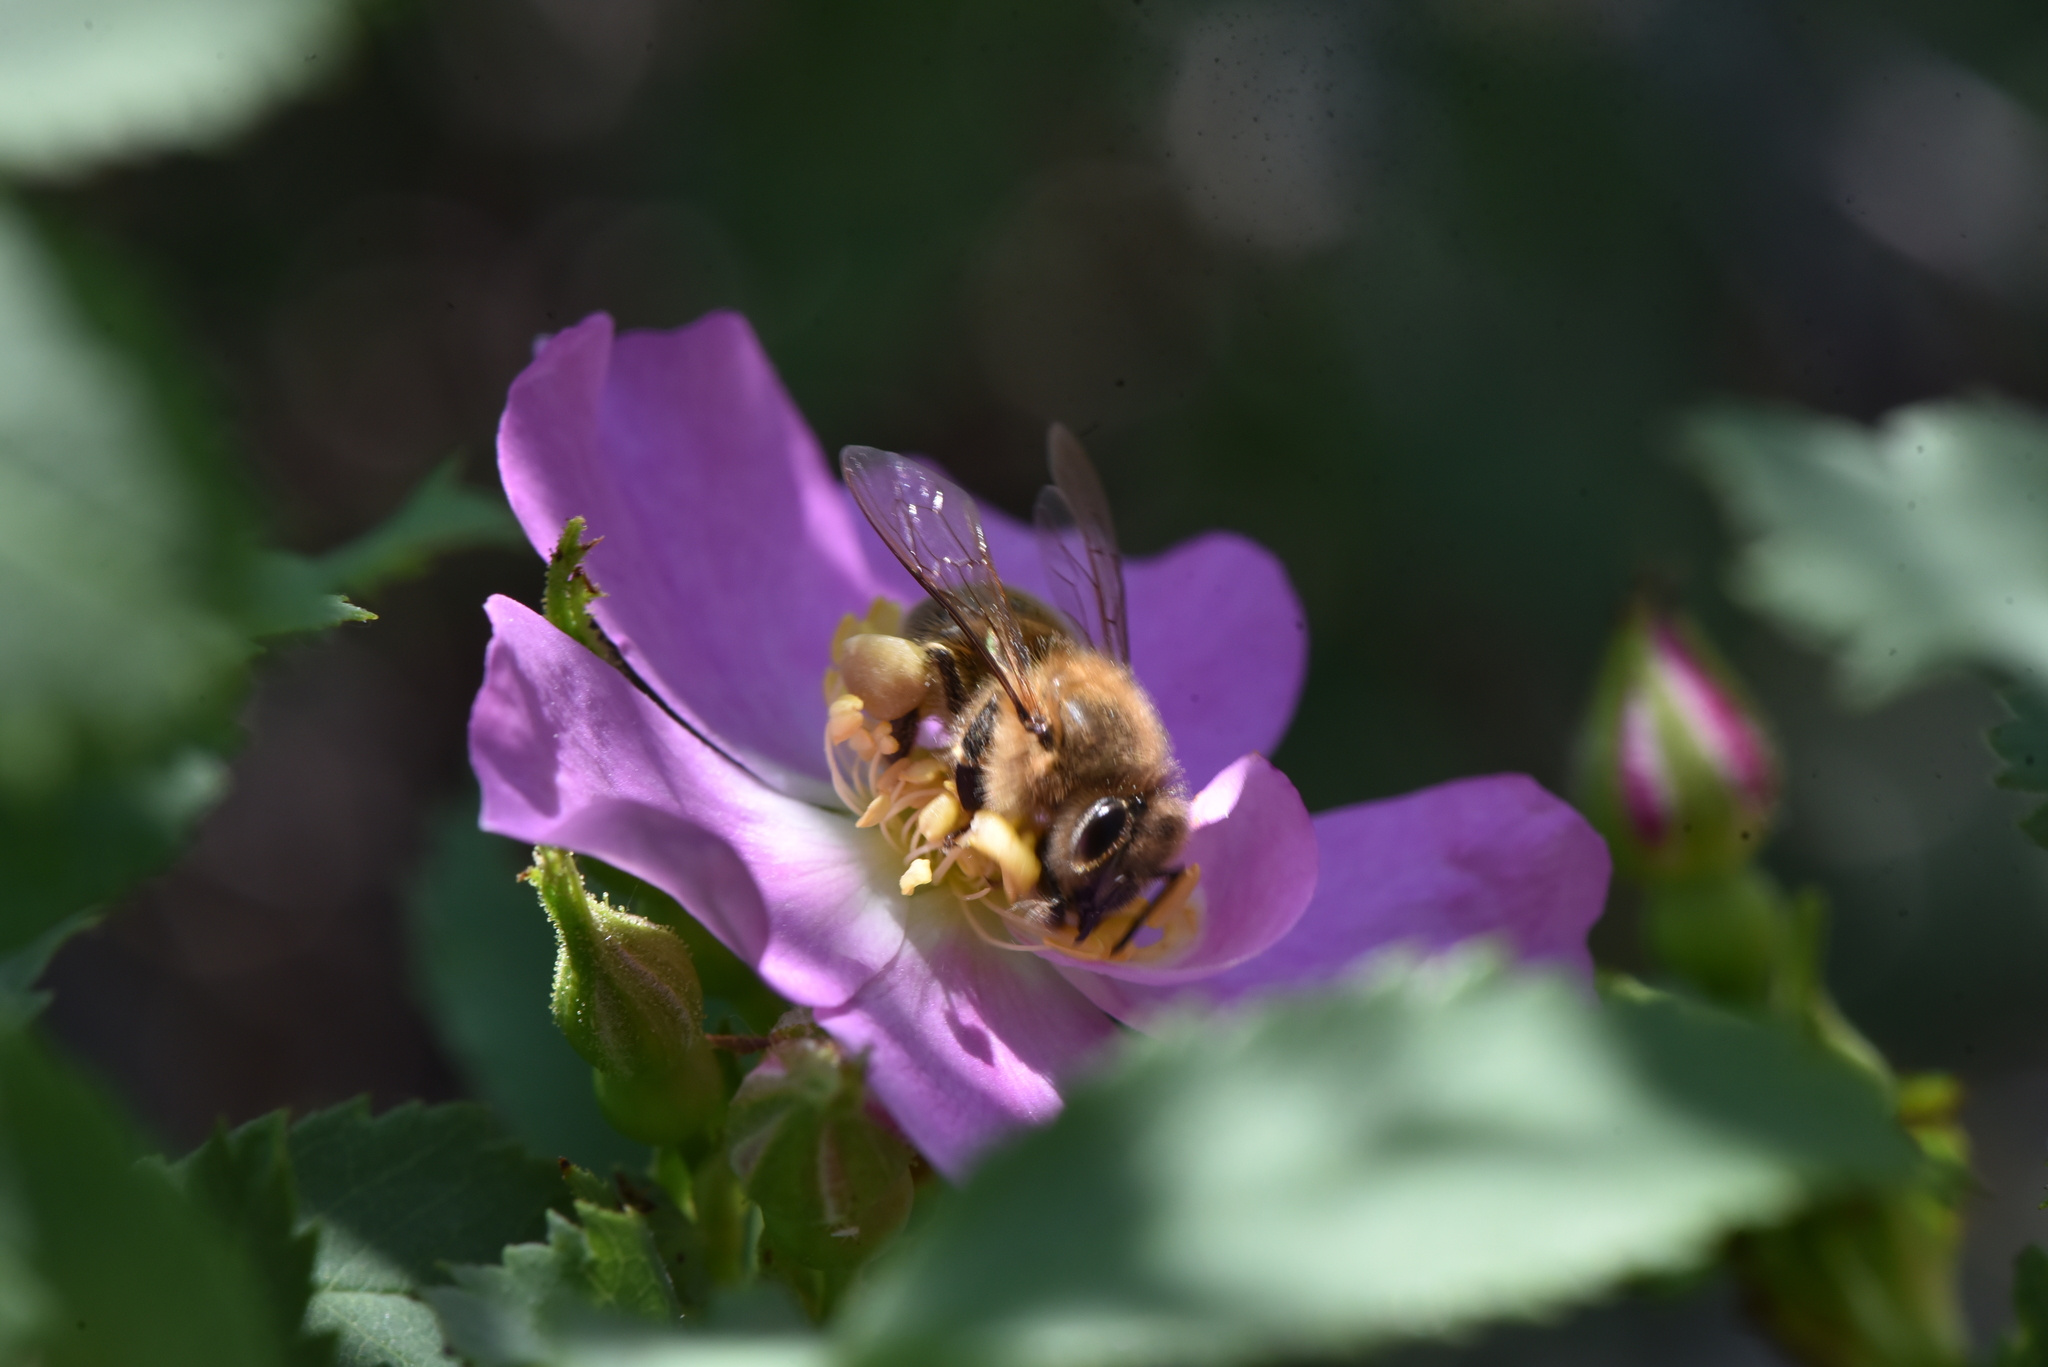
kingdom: Animalia
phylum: Arthropoda
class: Insecta
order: Hymenoptera
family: Apidae
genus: Apis
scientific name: Apis mellifera
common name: Honey bee
